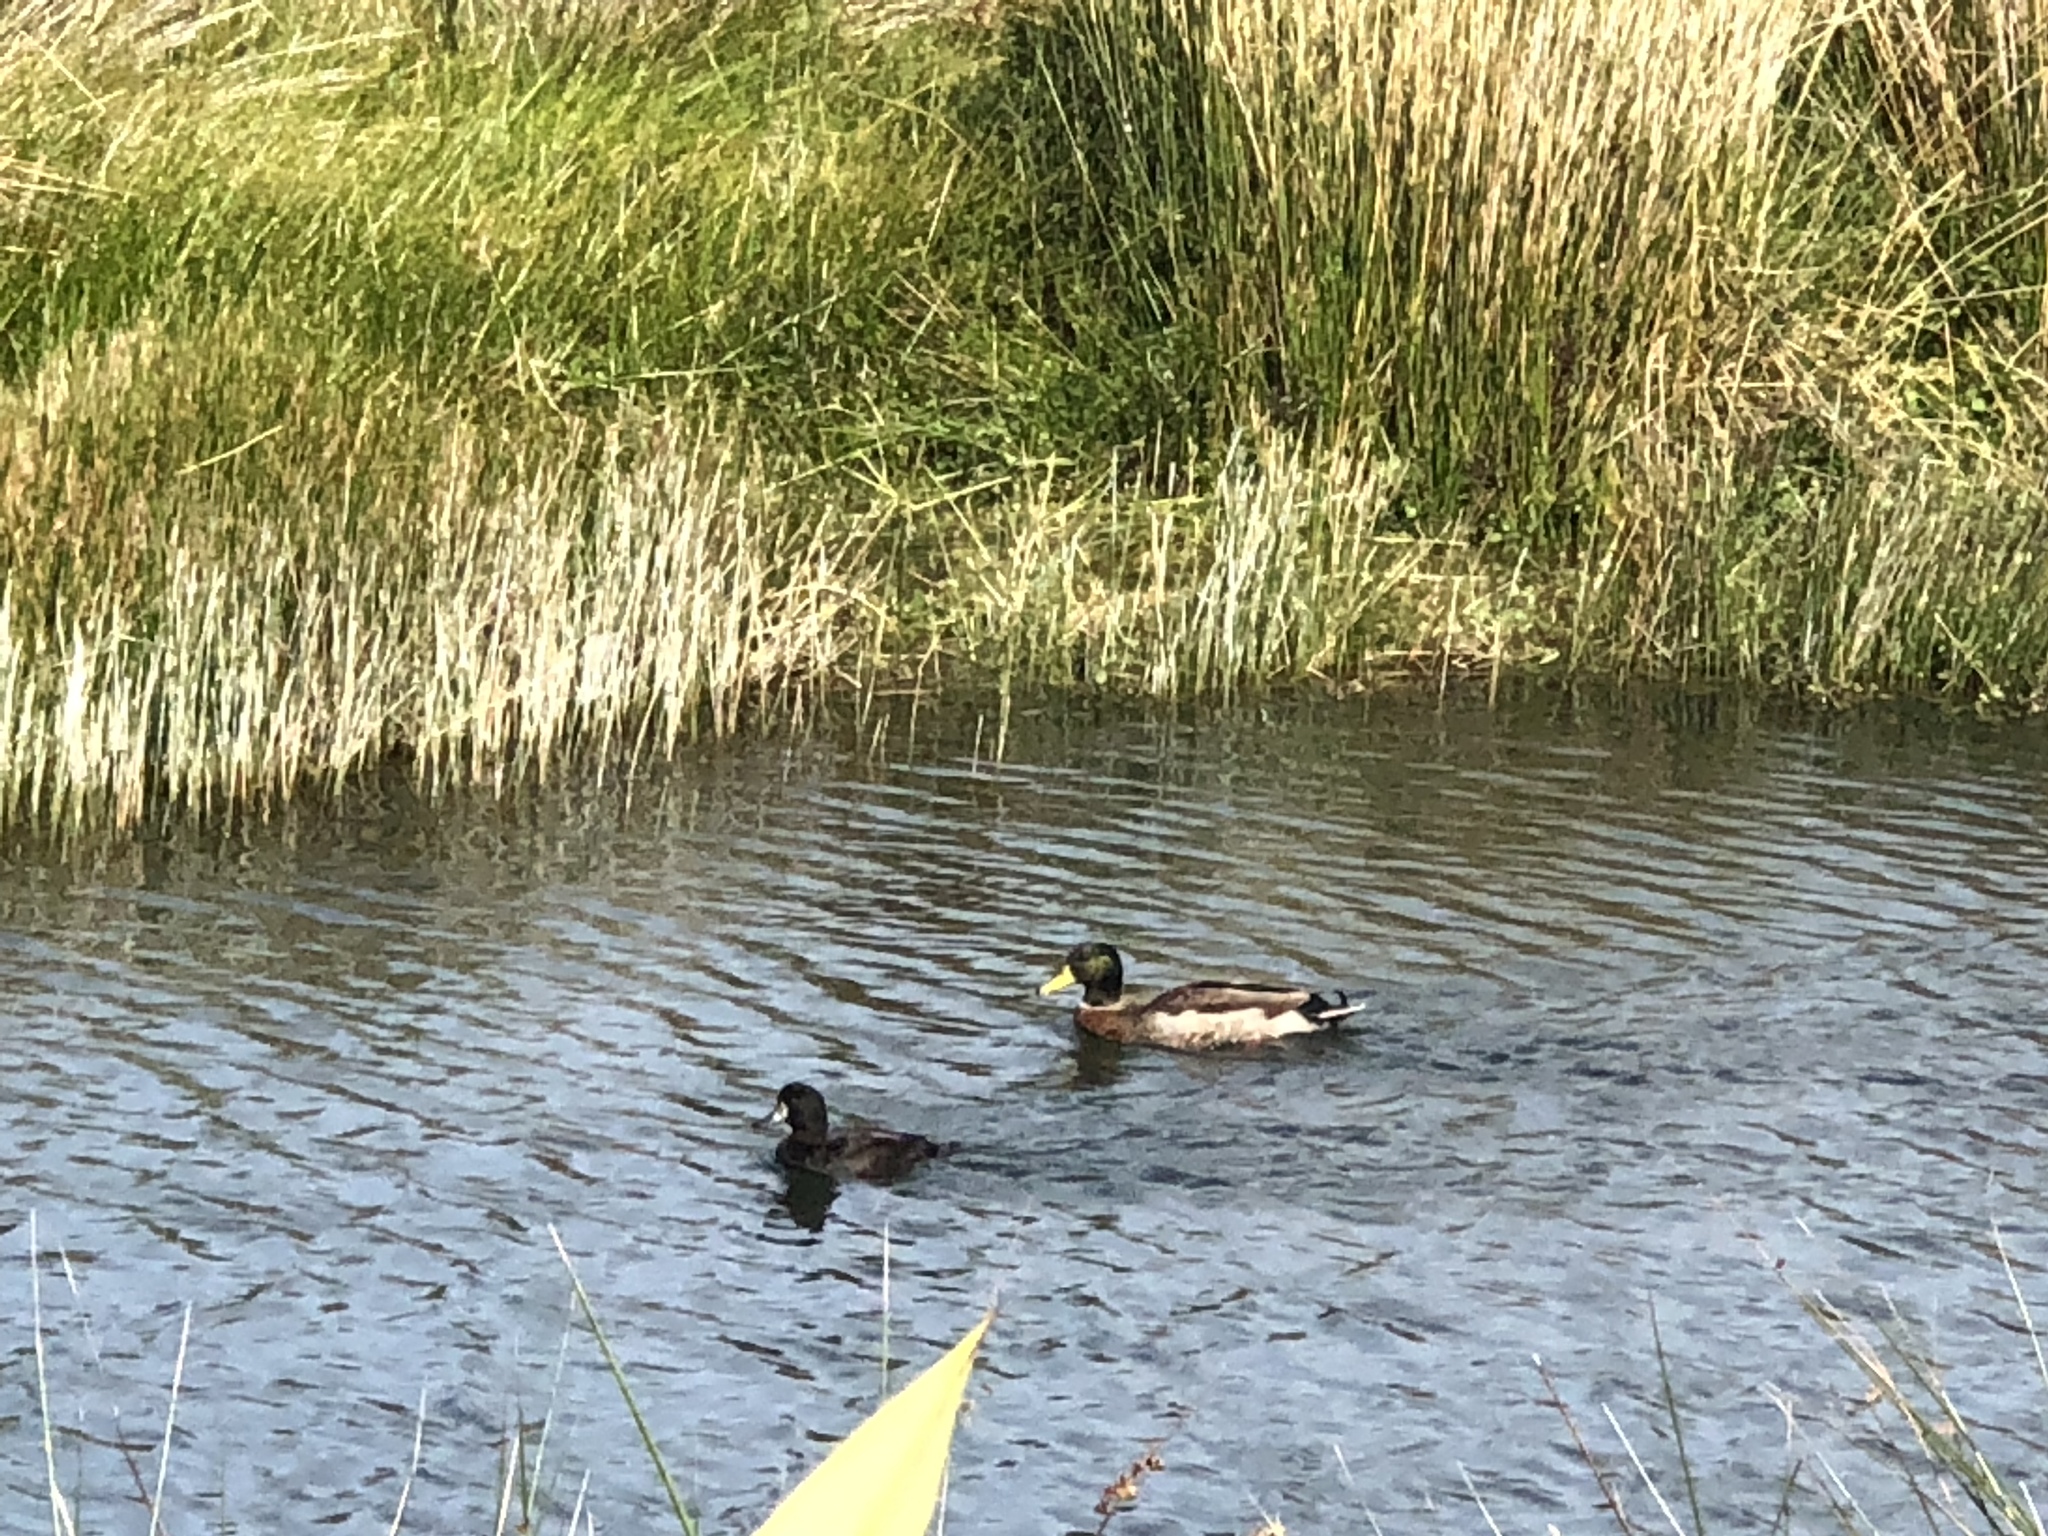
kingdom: Animalia
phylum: Chordata
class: Aves
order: Anseriformes
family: Anatidae
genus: Anas
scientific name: Anas platyrhynchos
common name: Mallard
